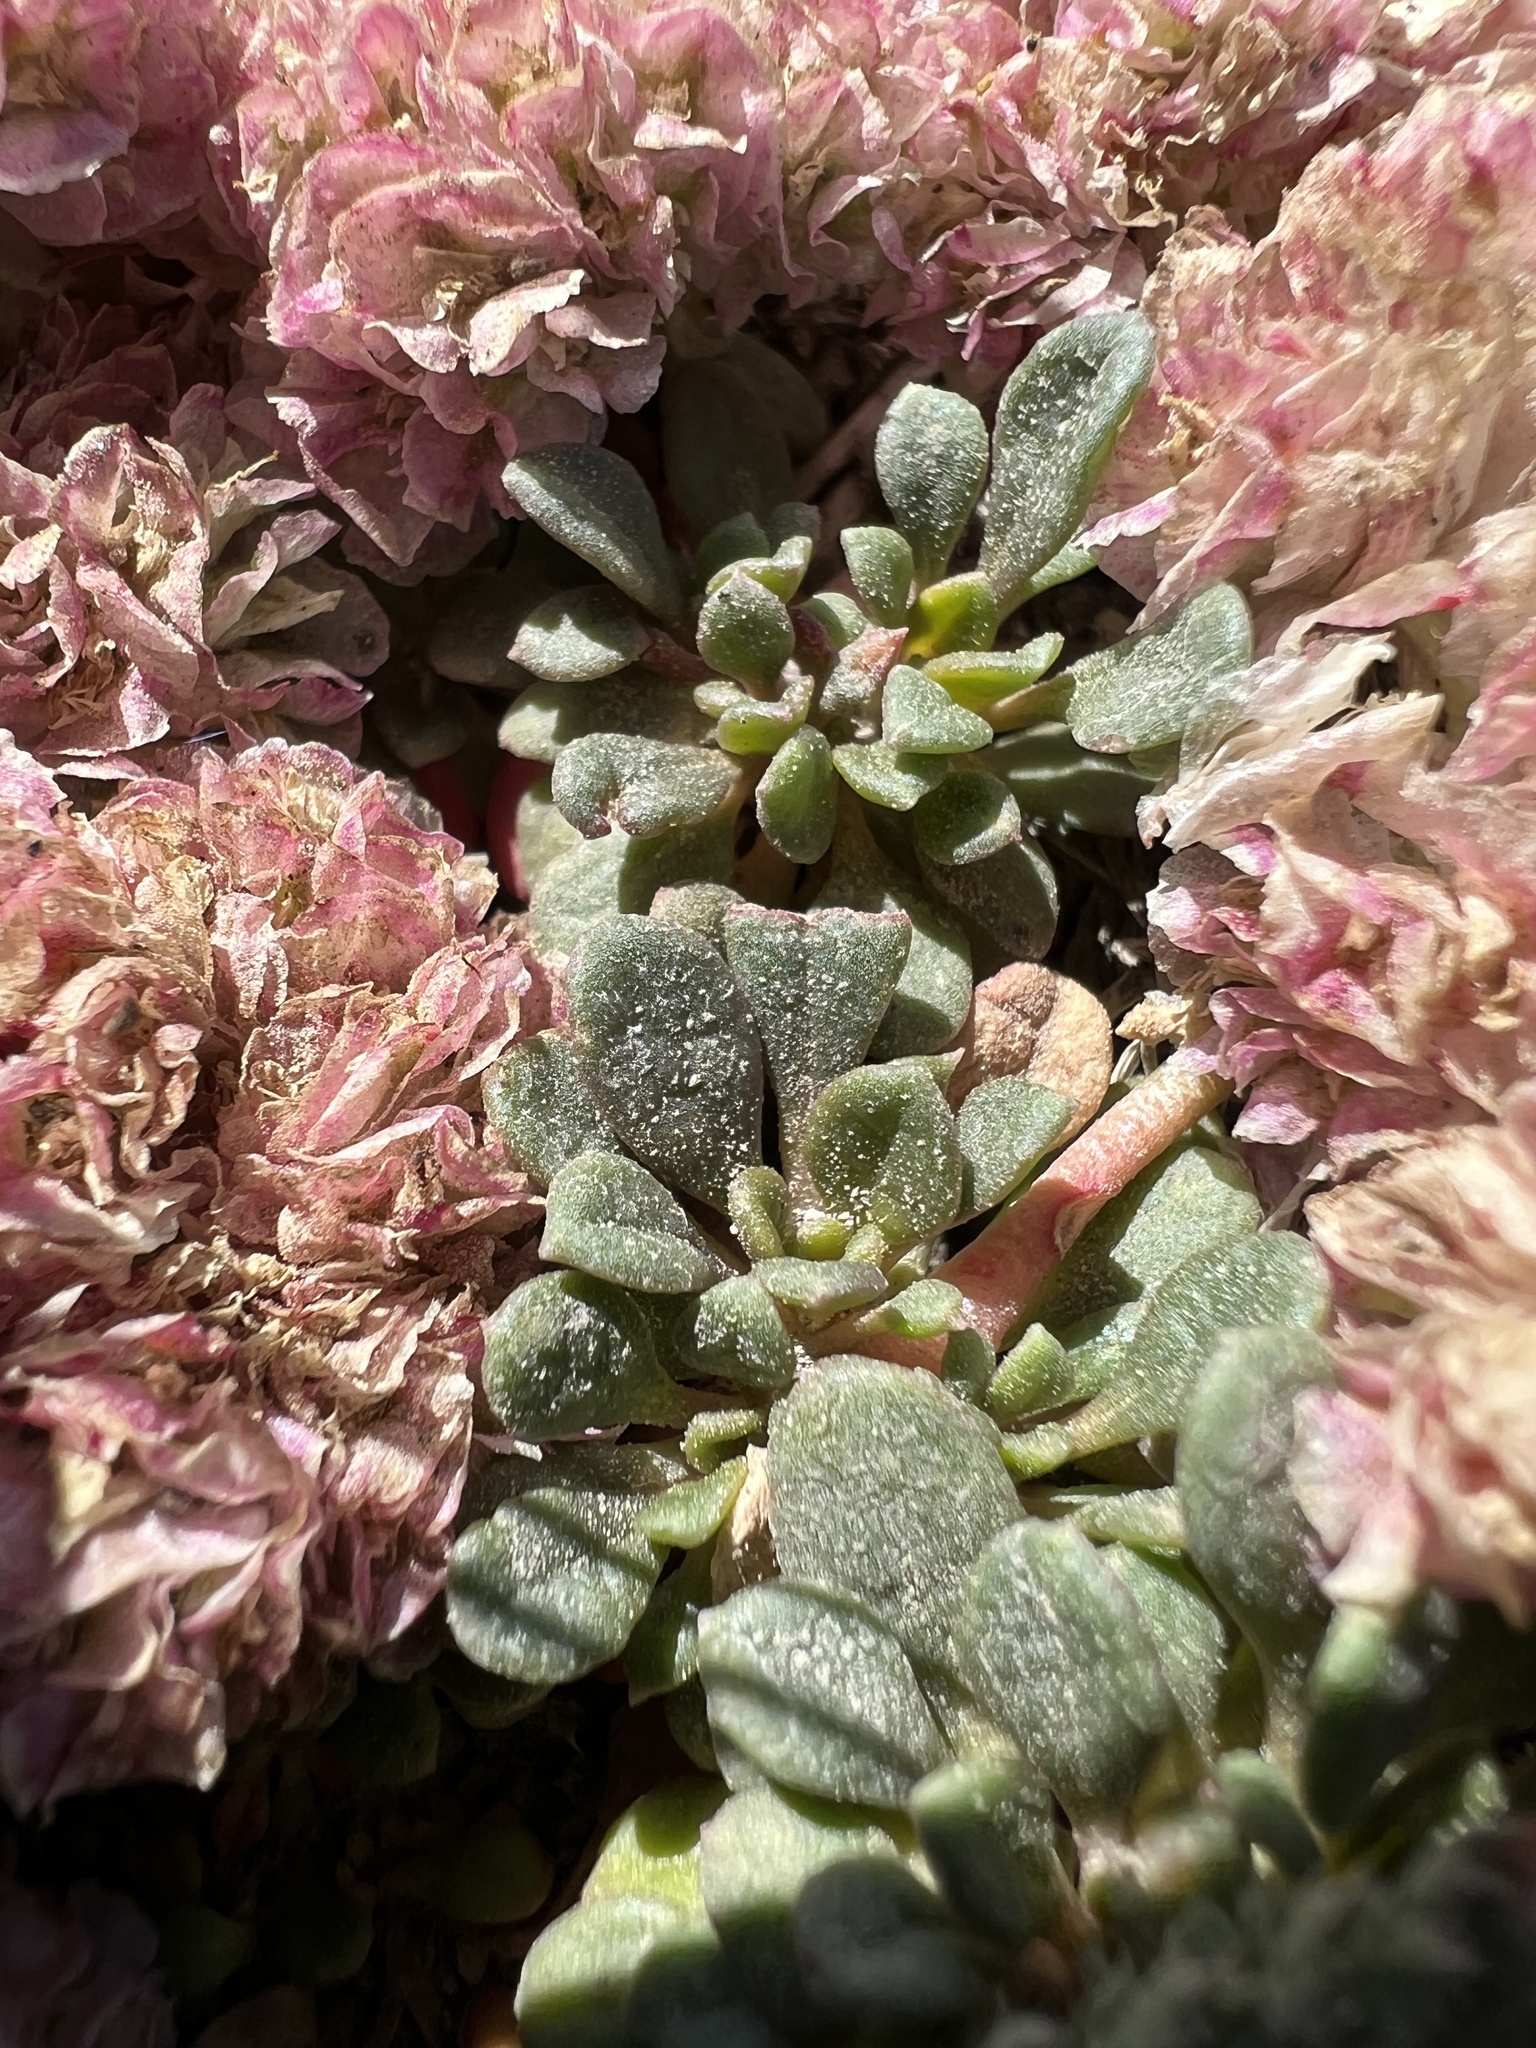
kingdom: Plantae
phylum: Tracheophyta
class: Magnoliopsida
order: Caryophyllales
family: Montiaceae
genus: Calyptridium
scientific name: Calyptridium umbellatum
